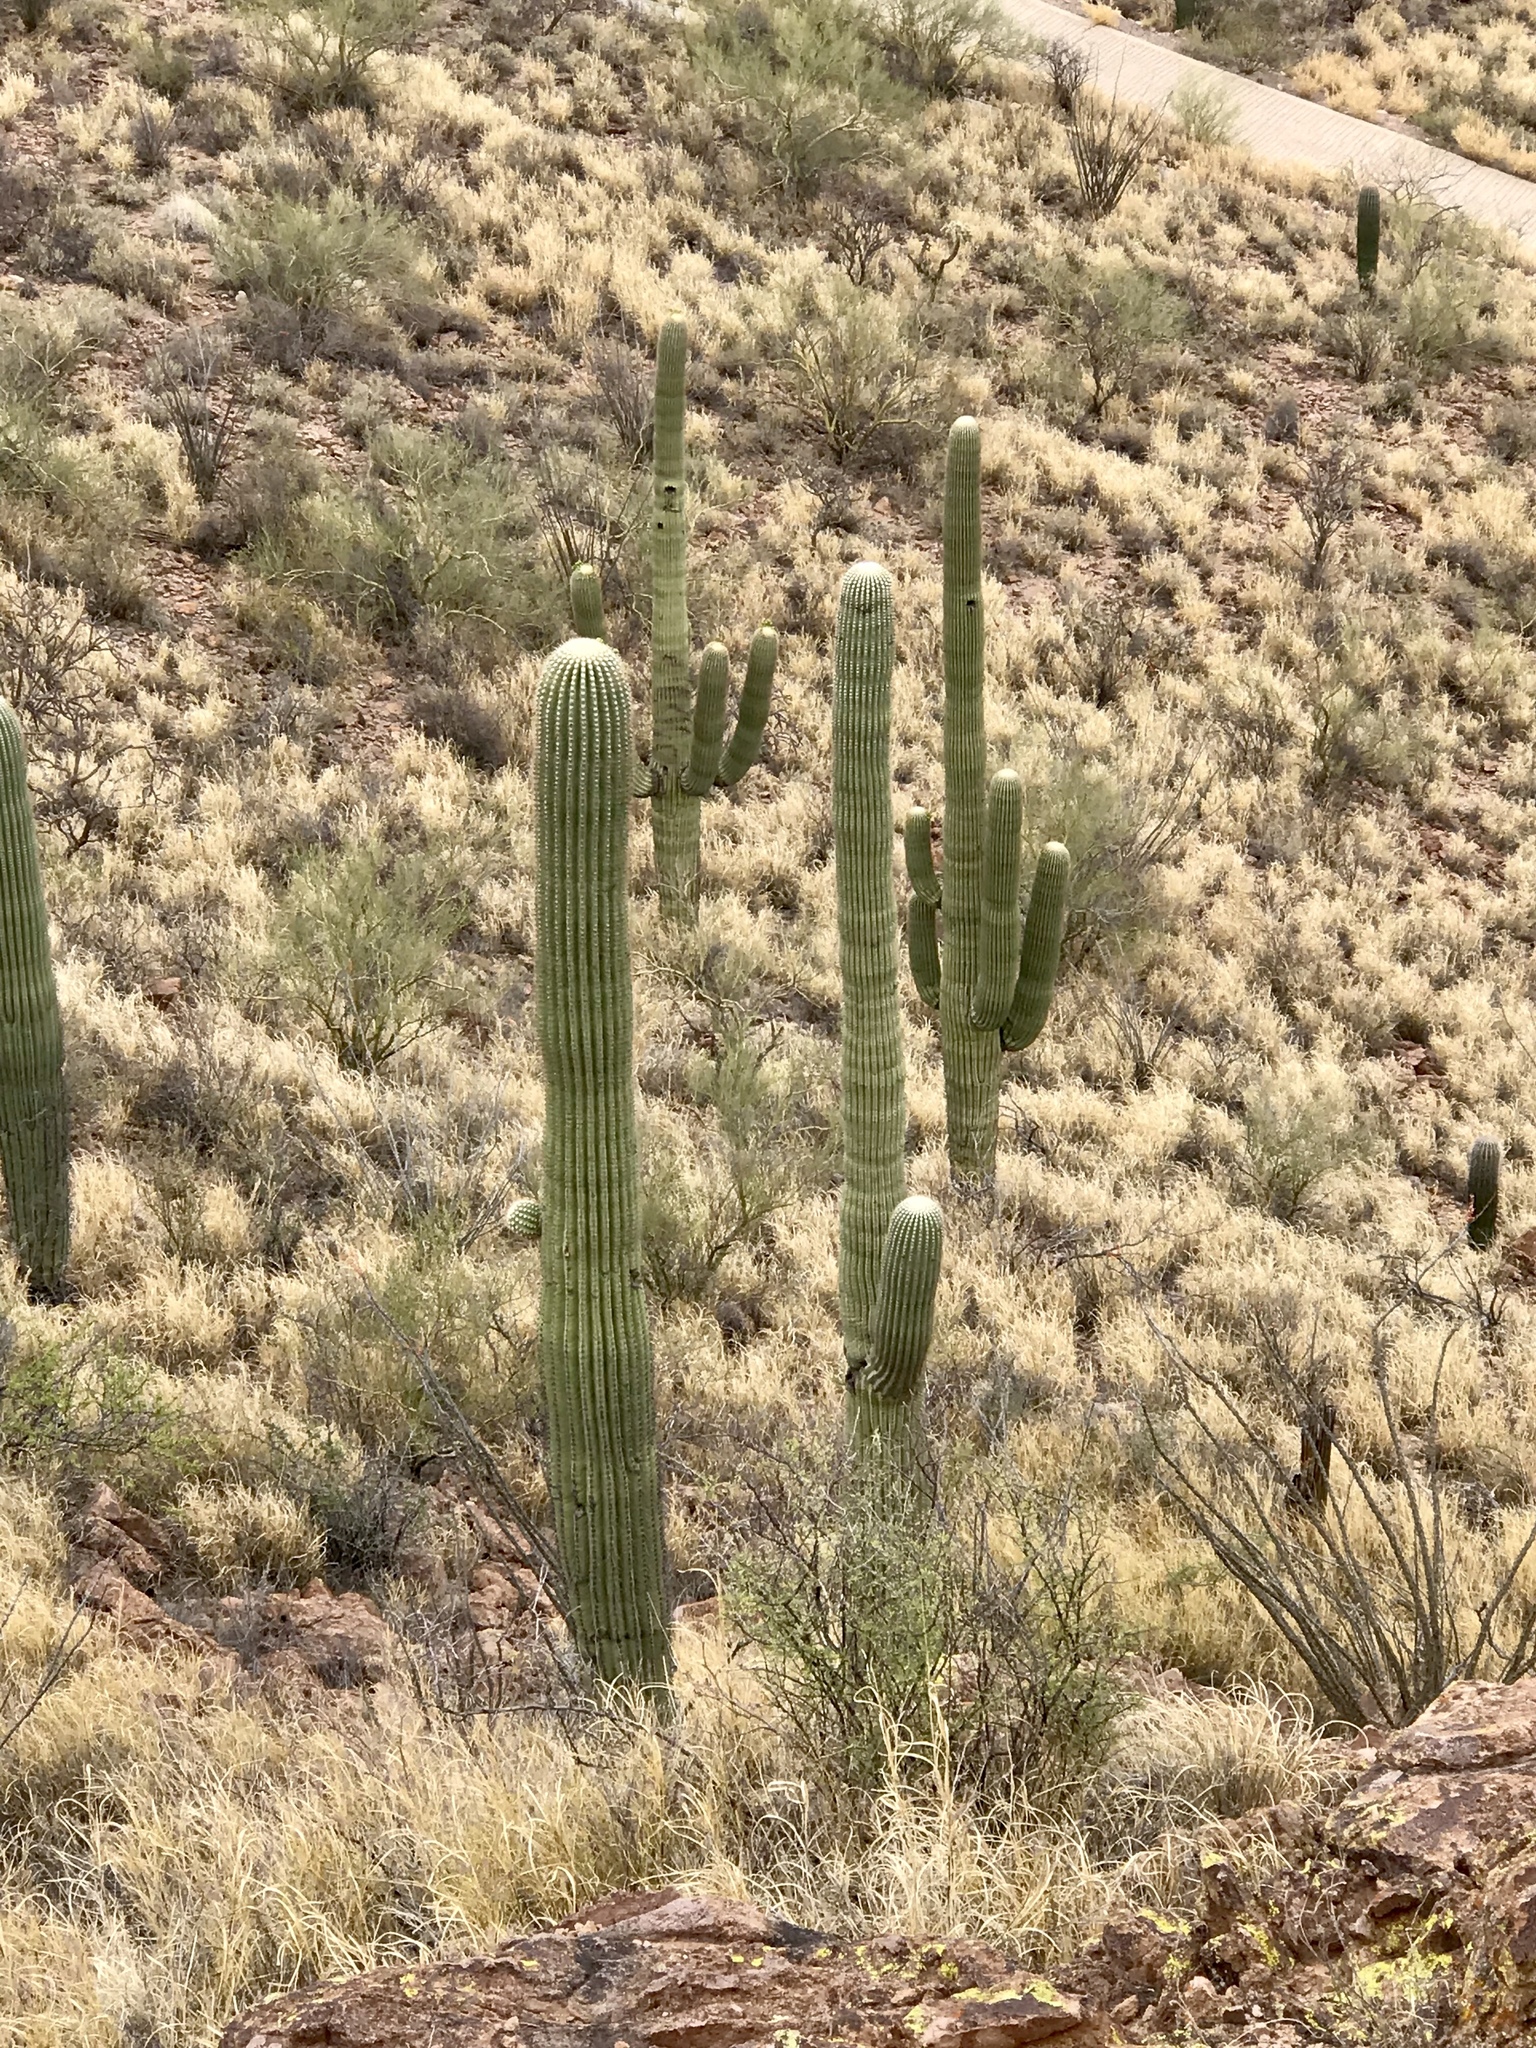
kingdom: Plantae
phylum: Tracheophyta
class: Magnoliopsida
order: Caryophyllales
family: Cactaceae
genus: Carnegiea
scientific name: Carnegiea gigantea
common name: Saguaro
